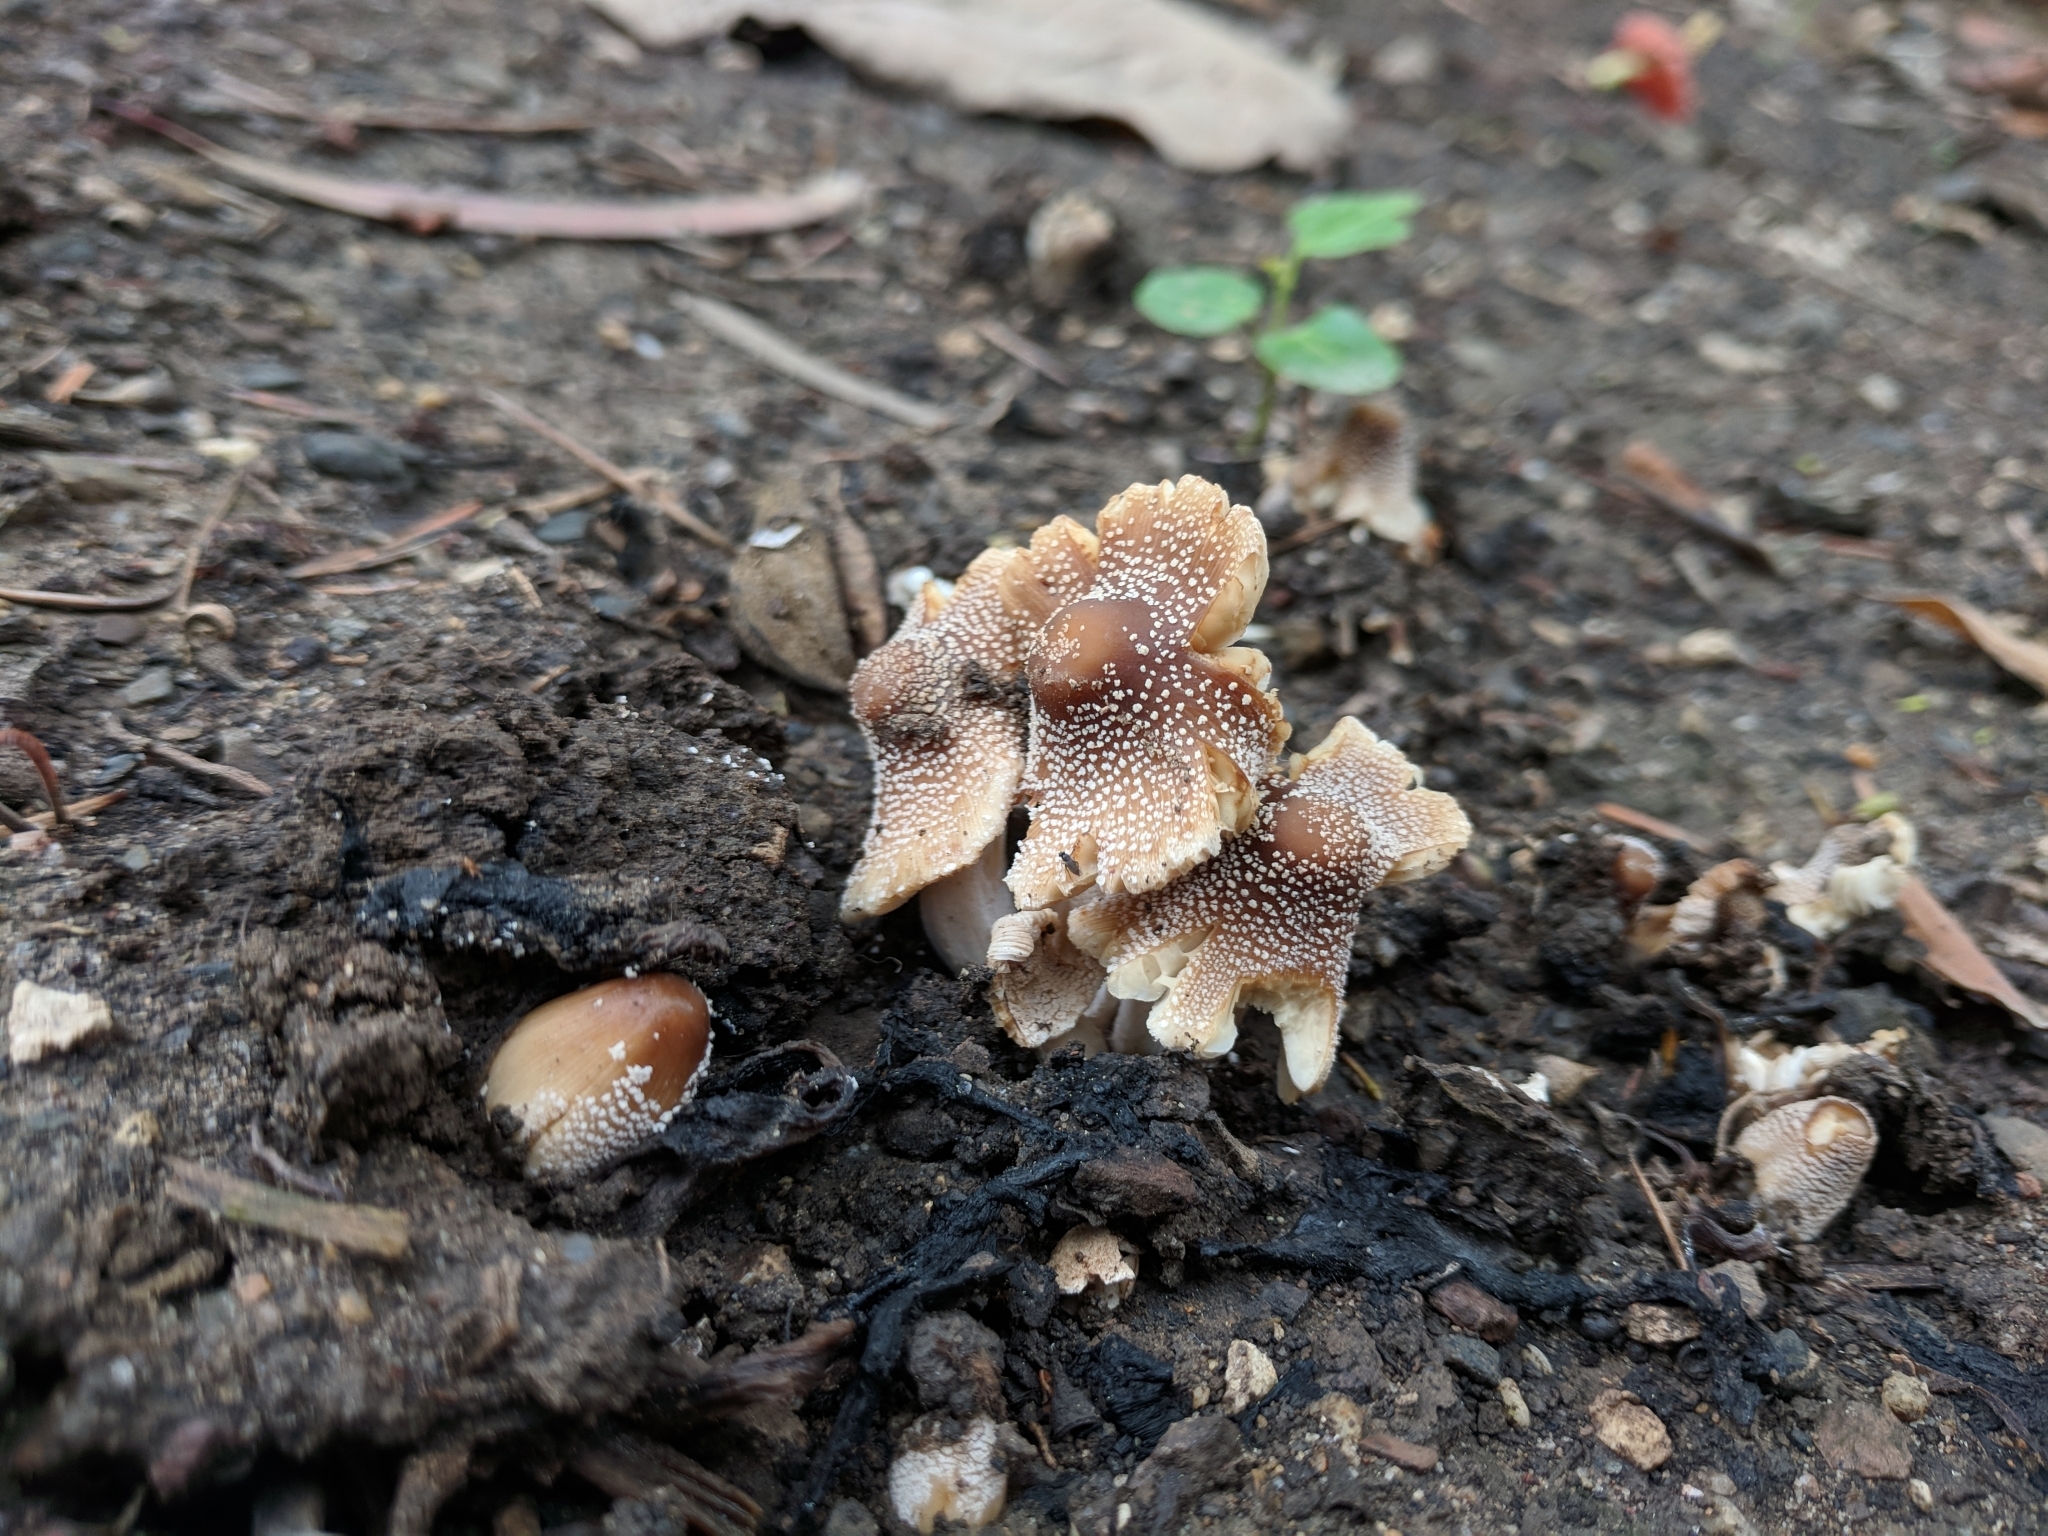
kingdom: Fungi
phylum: Basidiomycota
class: Agaricomycetes
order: Agaricales
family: Psathyrellaceae
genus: Coprinellus
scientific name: Coprinellus micaceus
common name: Glistening ink-cap
